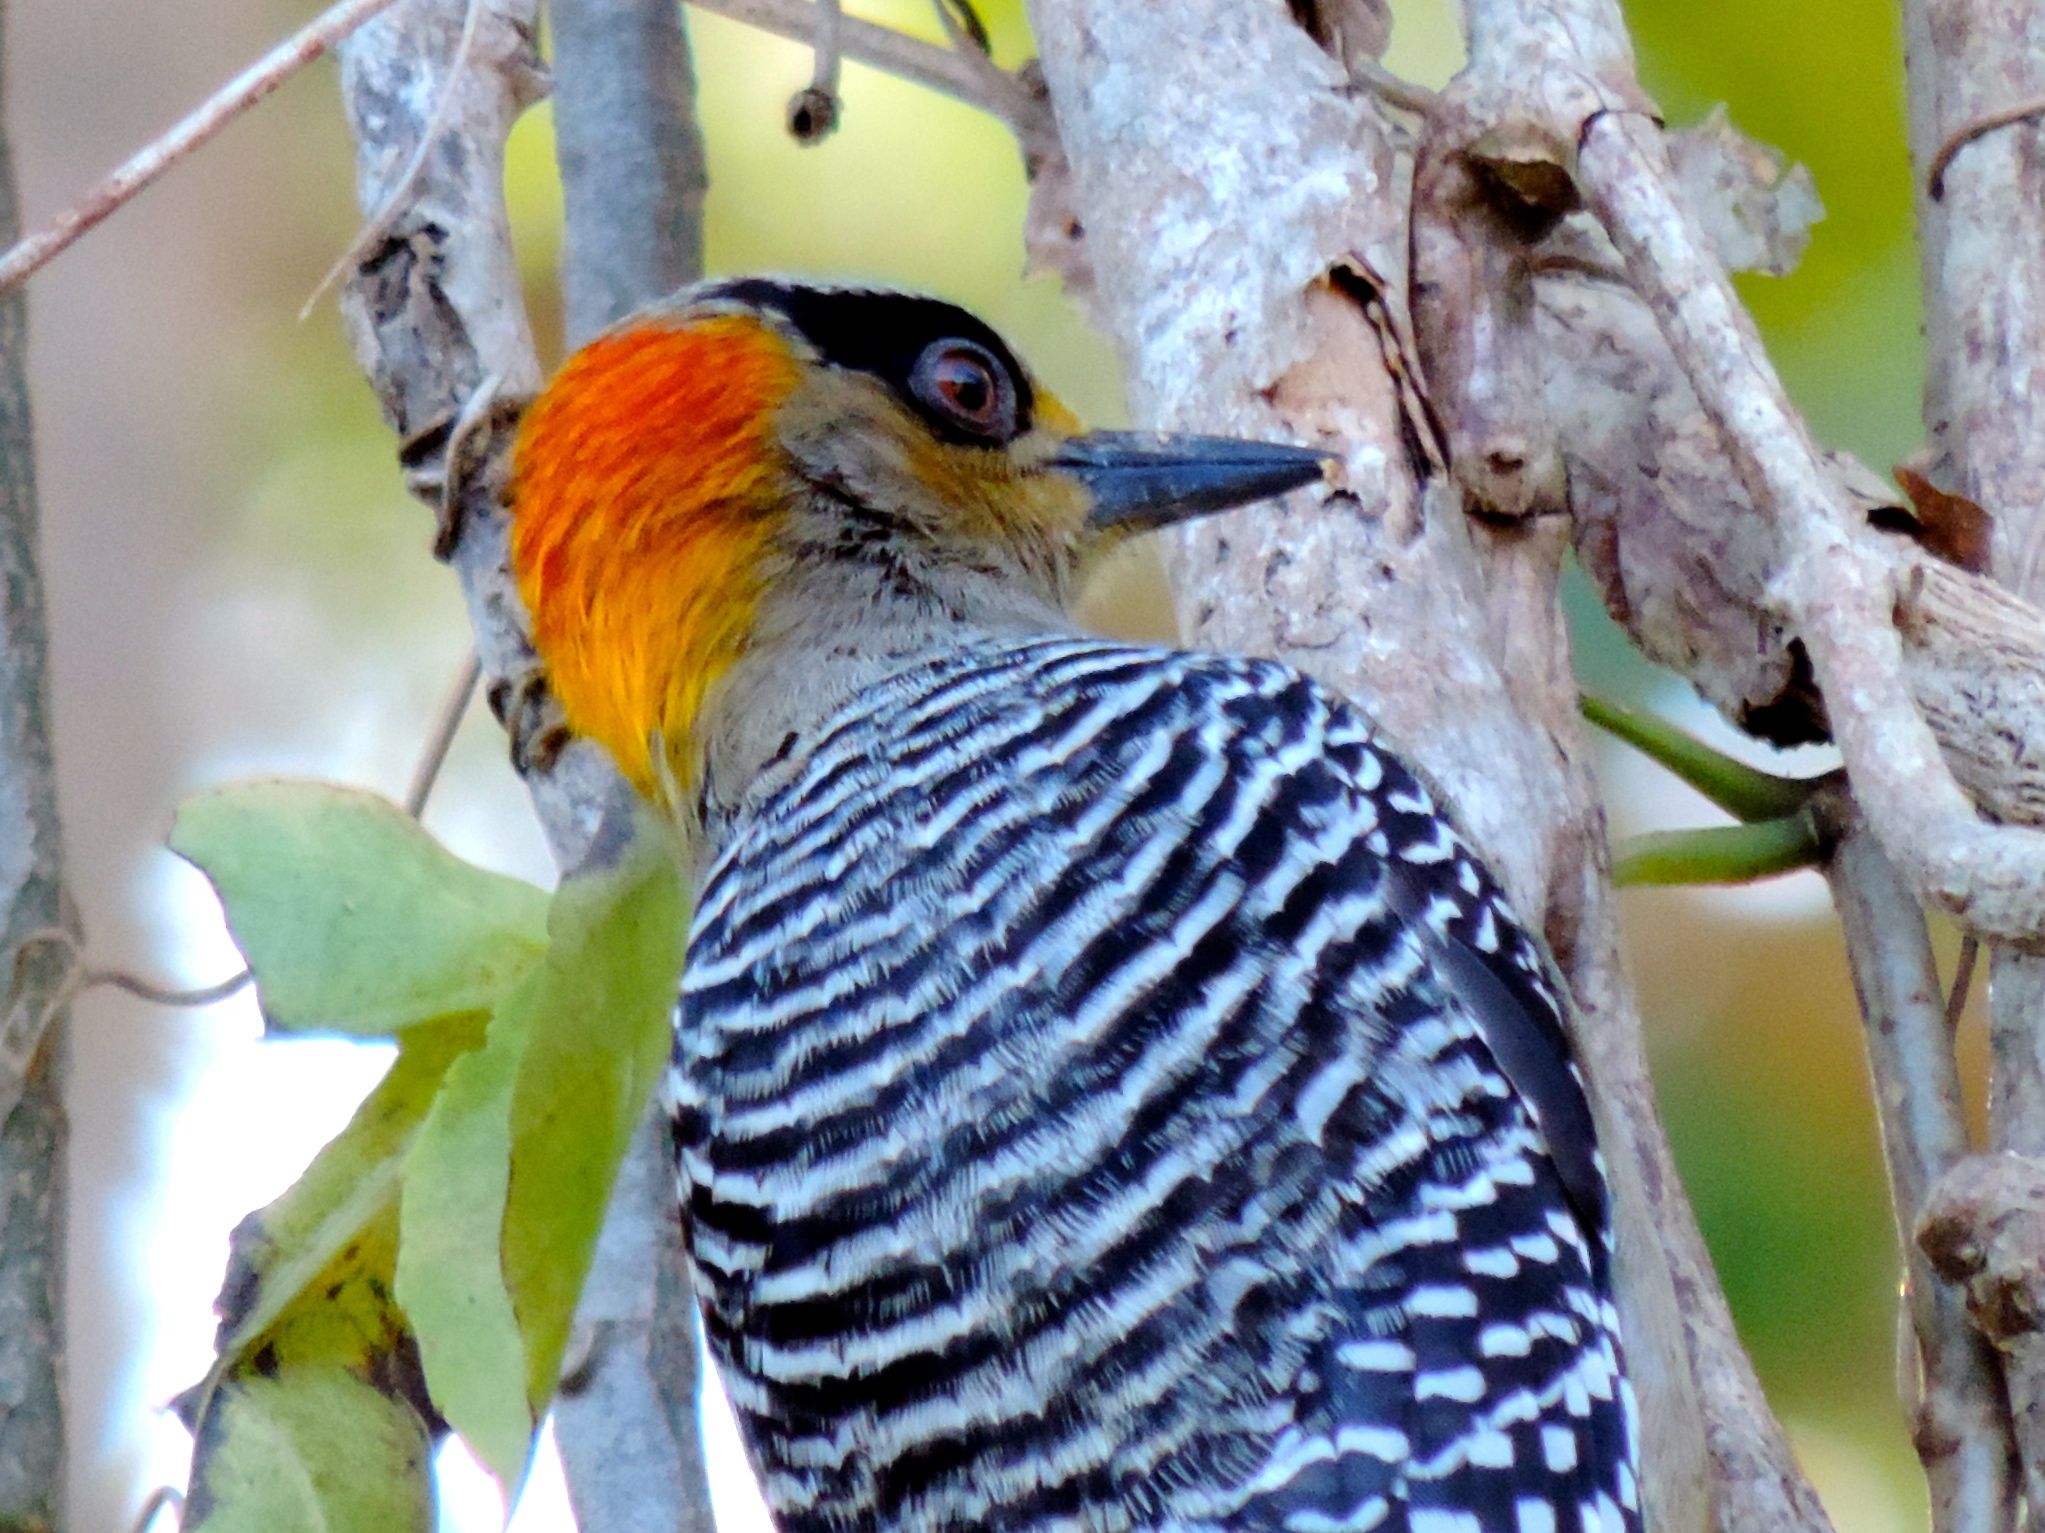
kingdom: Animalia
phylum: Chordata
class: Aves
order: Piciformes
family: Picidae
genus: Melanerpes
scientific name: Melanerpes chrysogenys
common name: Golden-cheeked woodpecker
